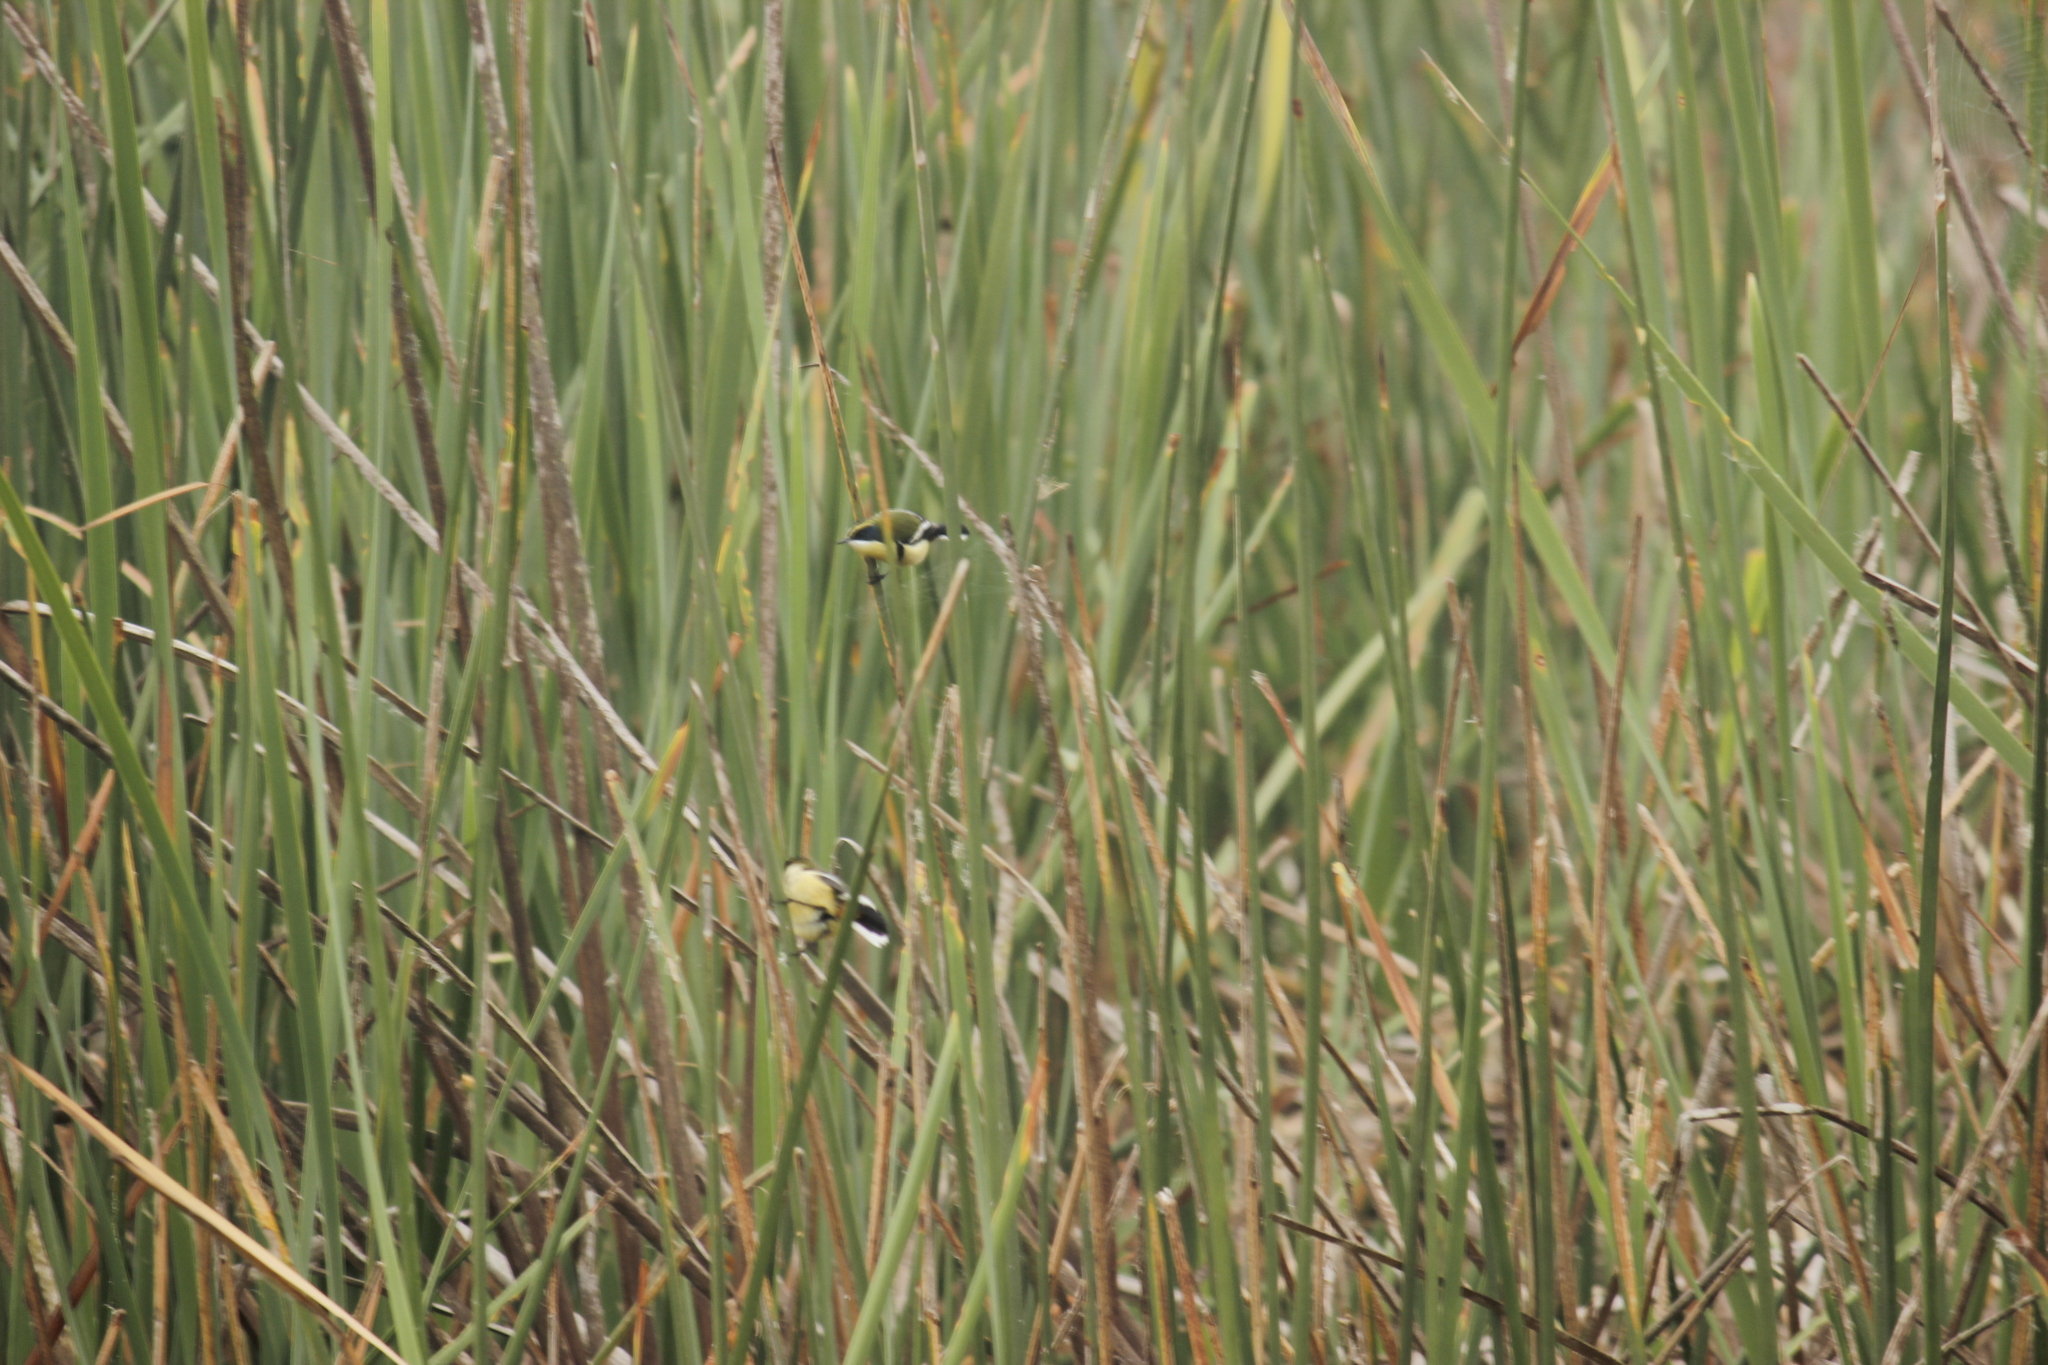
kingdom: Animalia
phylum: Chordata
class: Aves
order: Passeriformes
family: Tyrannidae
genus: Tachuris
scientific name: Tachuris rubrigastra
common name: Many-colored rush tyrant
